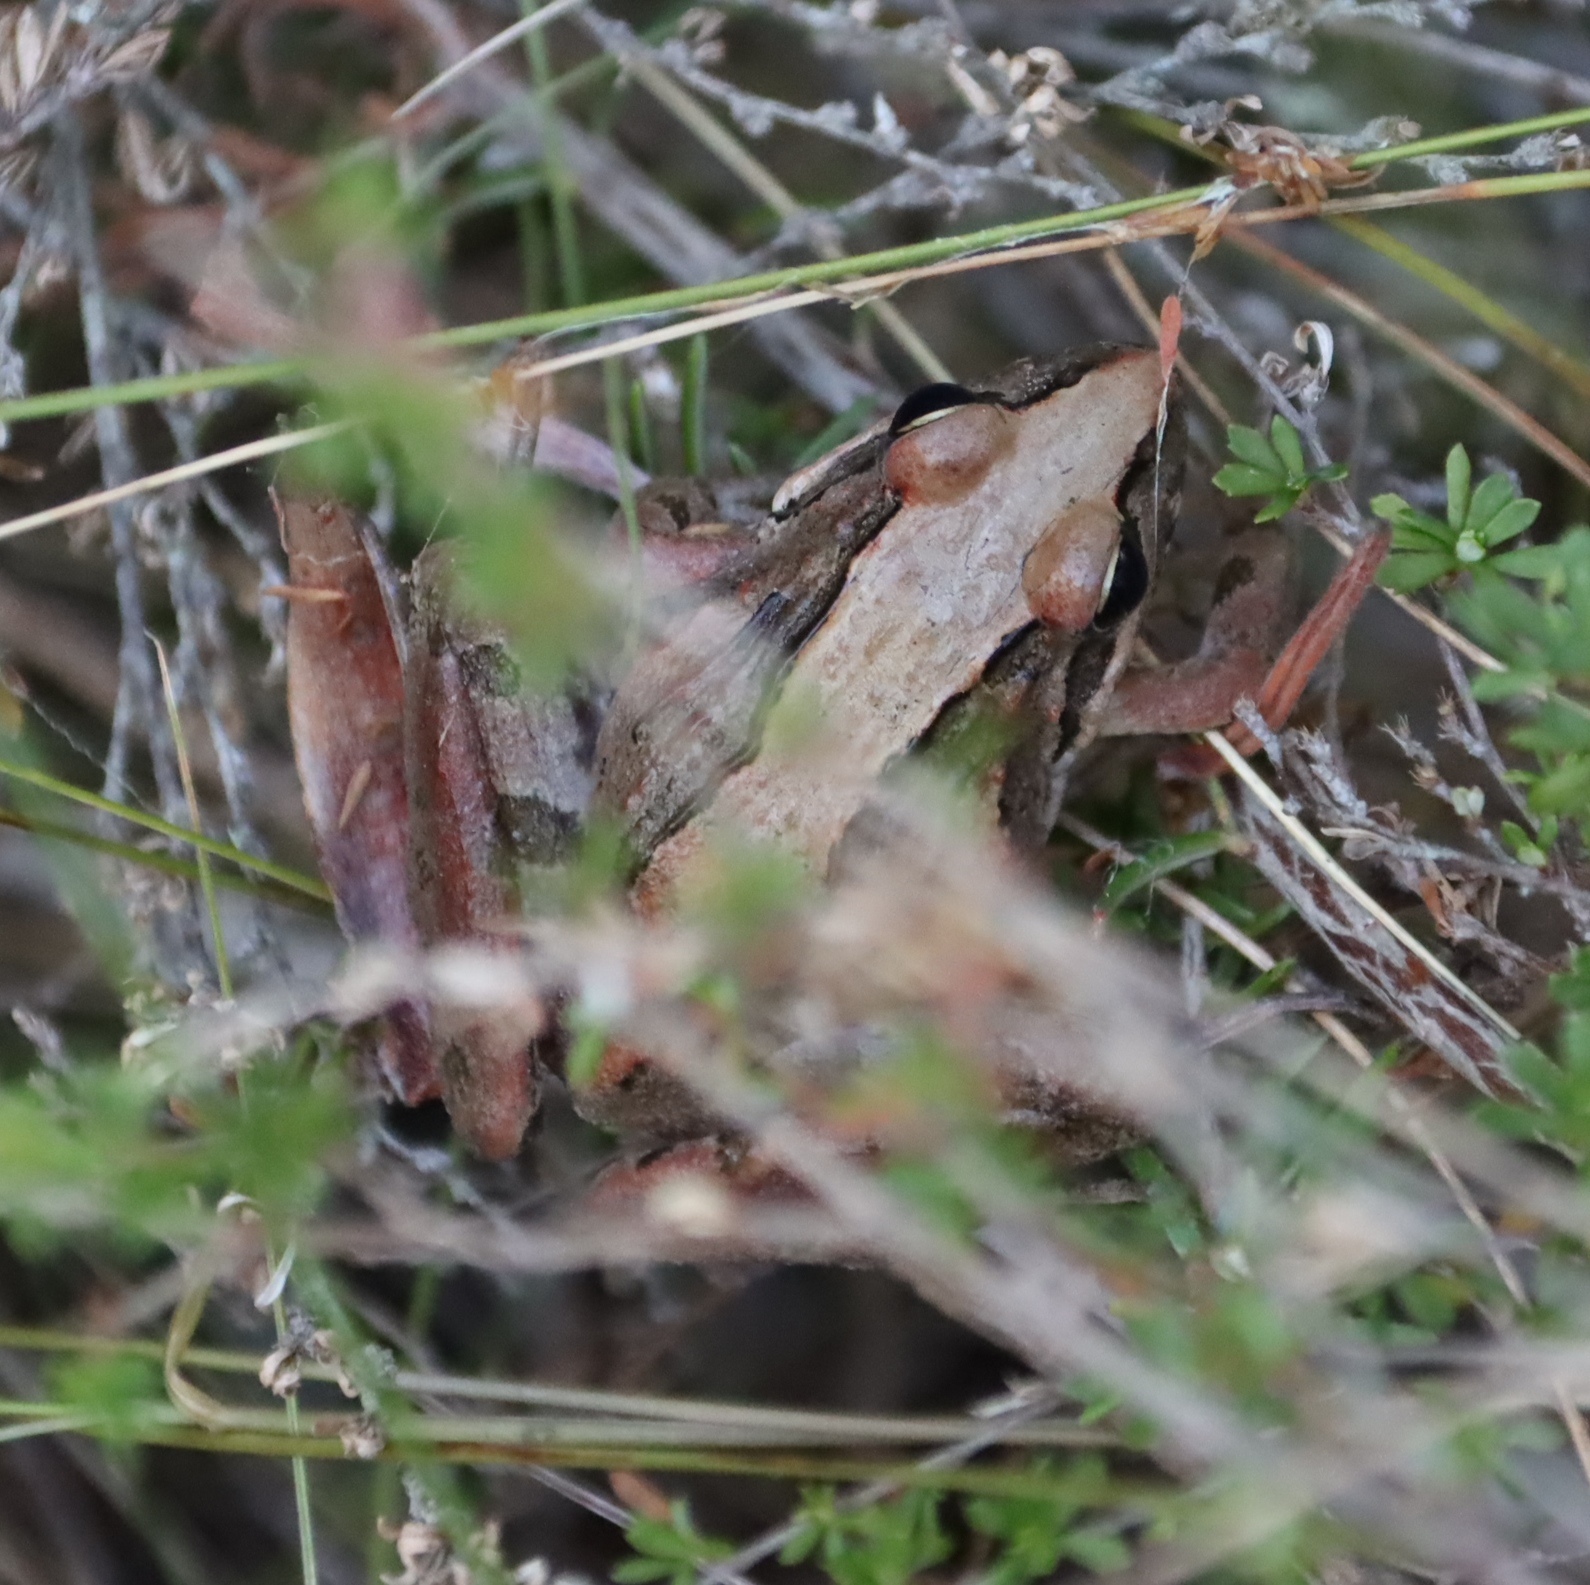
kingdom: Animalia
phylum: Chordata
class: Amphibia
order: Anura
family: Pyxicephalidae
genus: Strongylopus
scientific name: Strongylopus grayii
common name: Gray's stream frog
